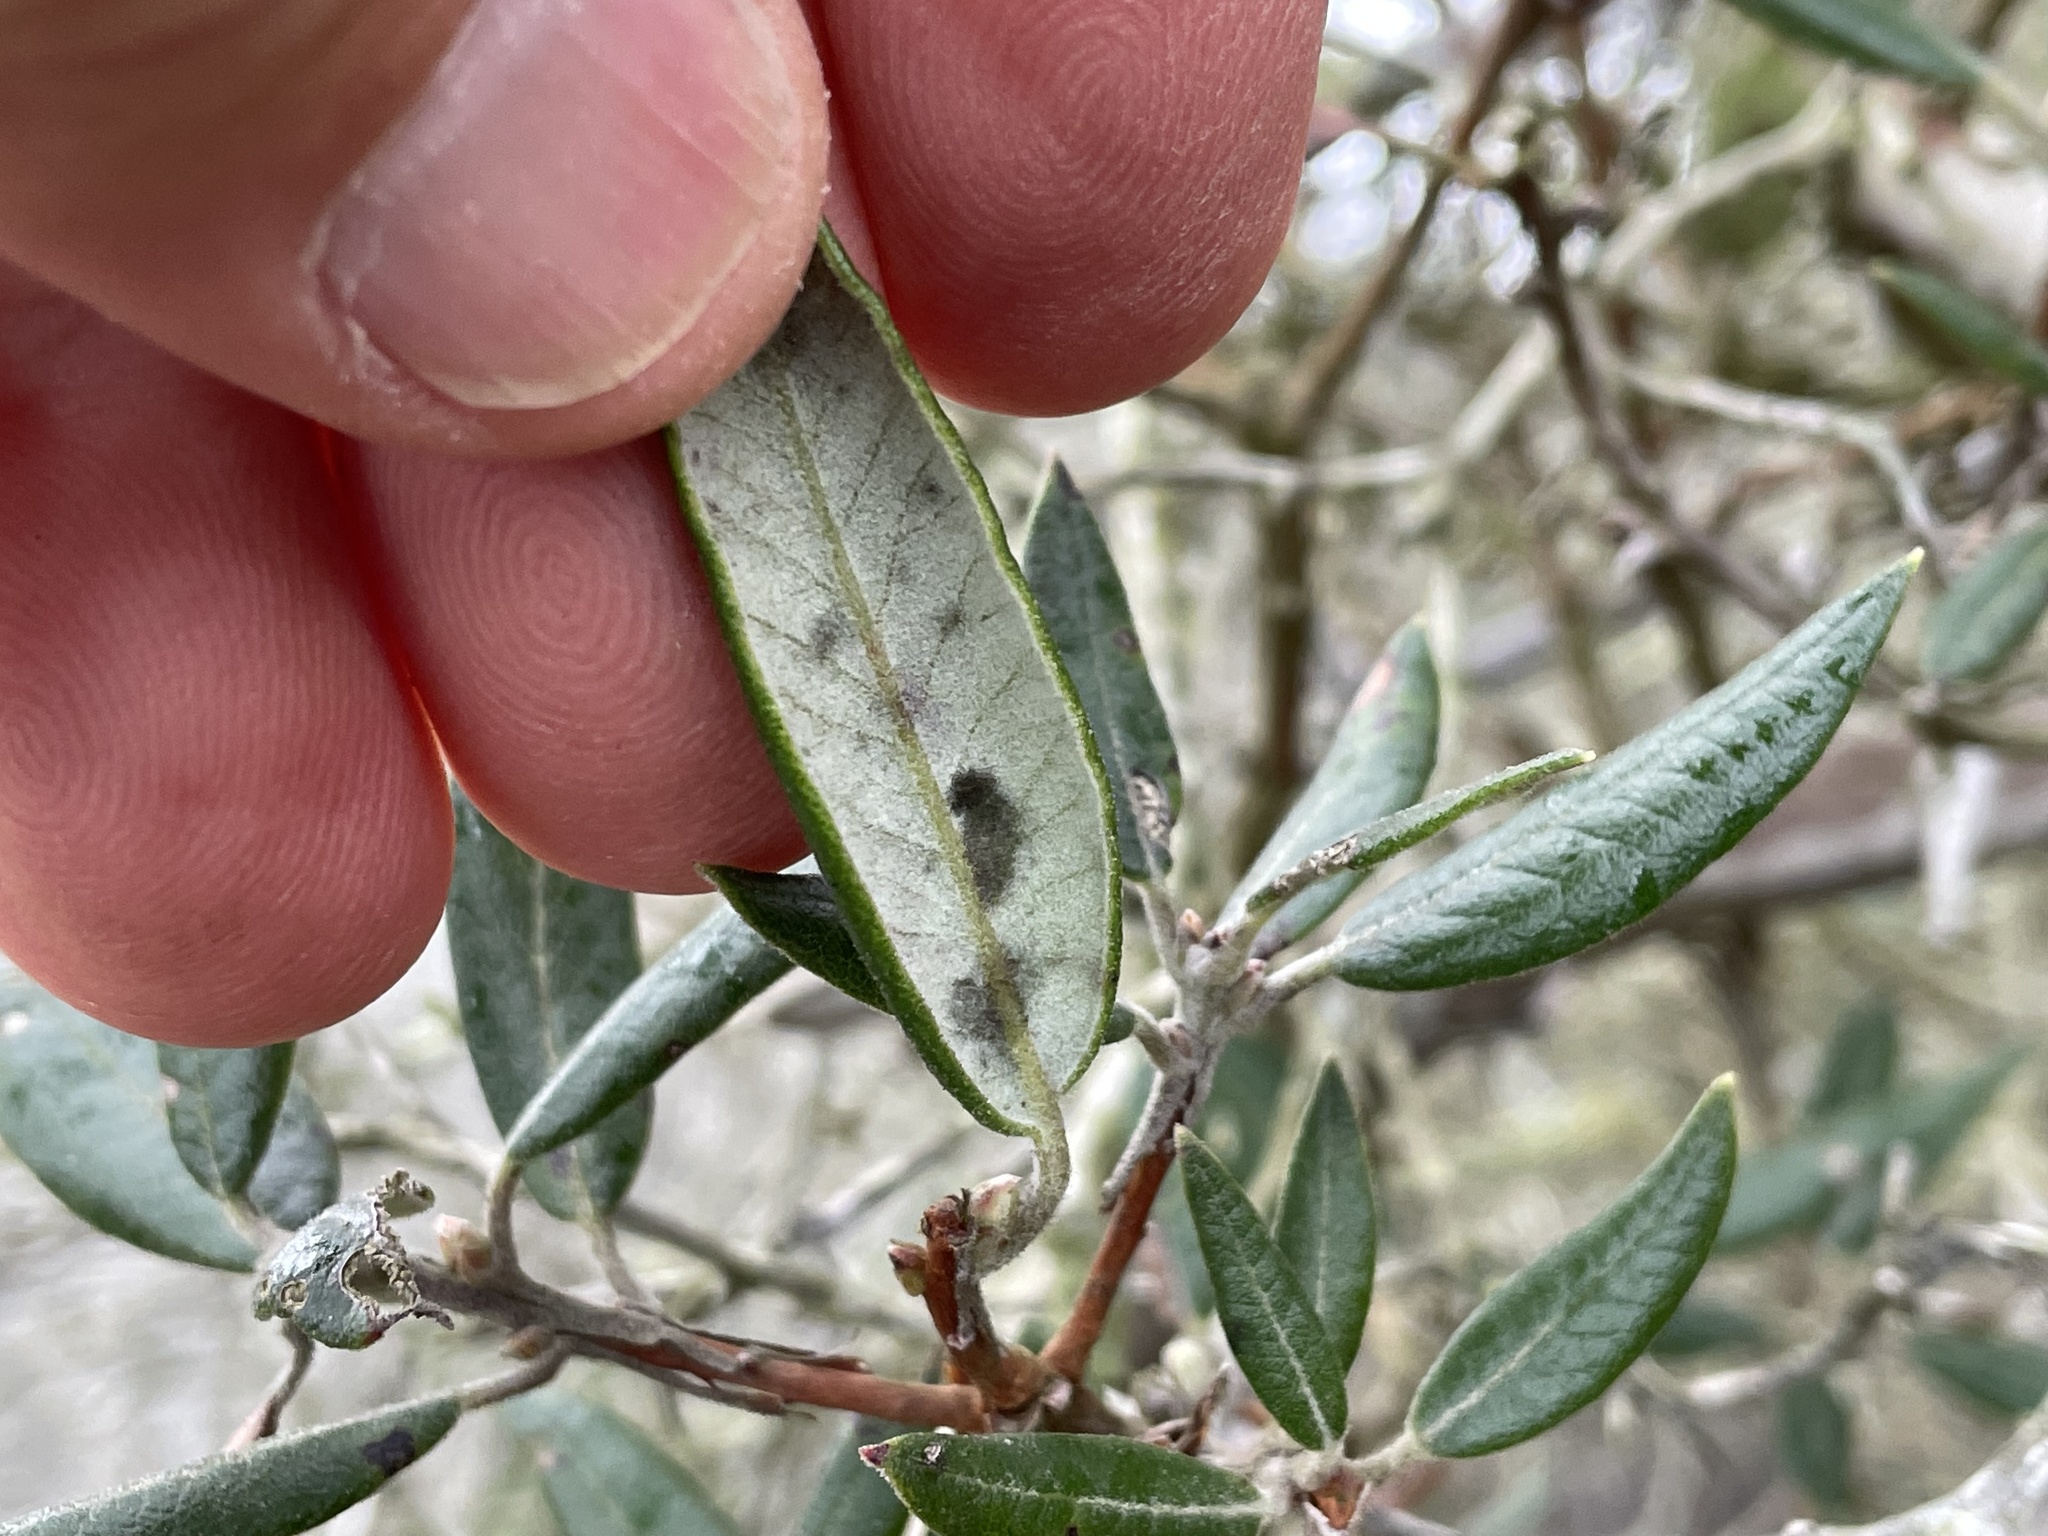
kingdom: Plantae
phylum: Tracheophyta
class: Magnoliopsida
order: Ericales
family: Ericaceae
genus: Arctostaphylos
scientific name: Arctostaphylos bicolor
